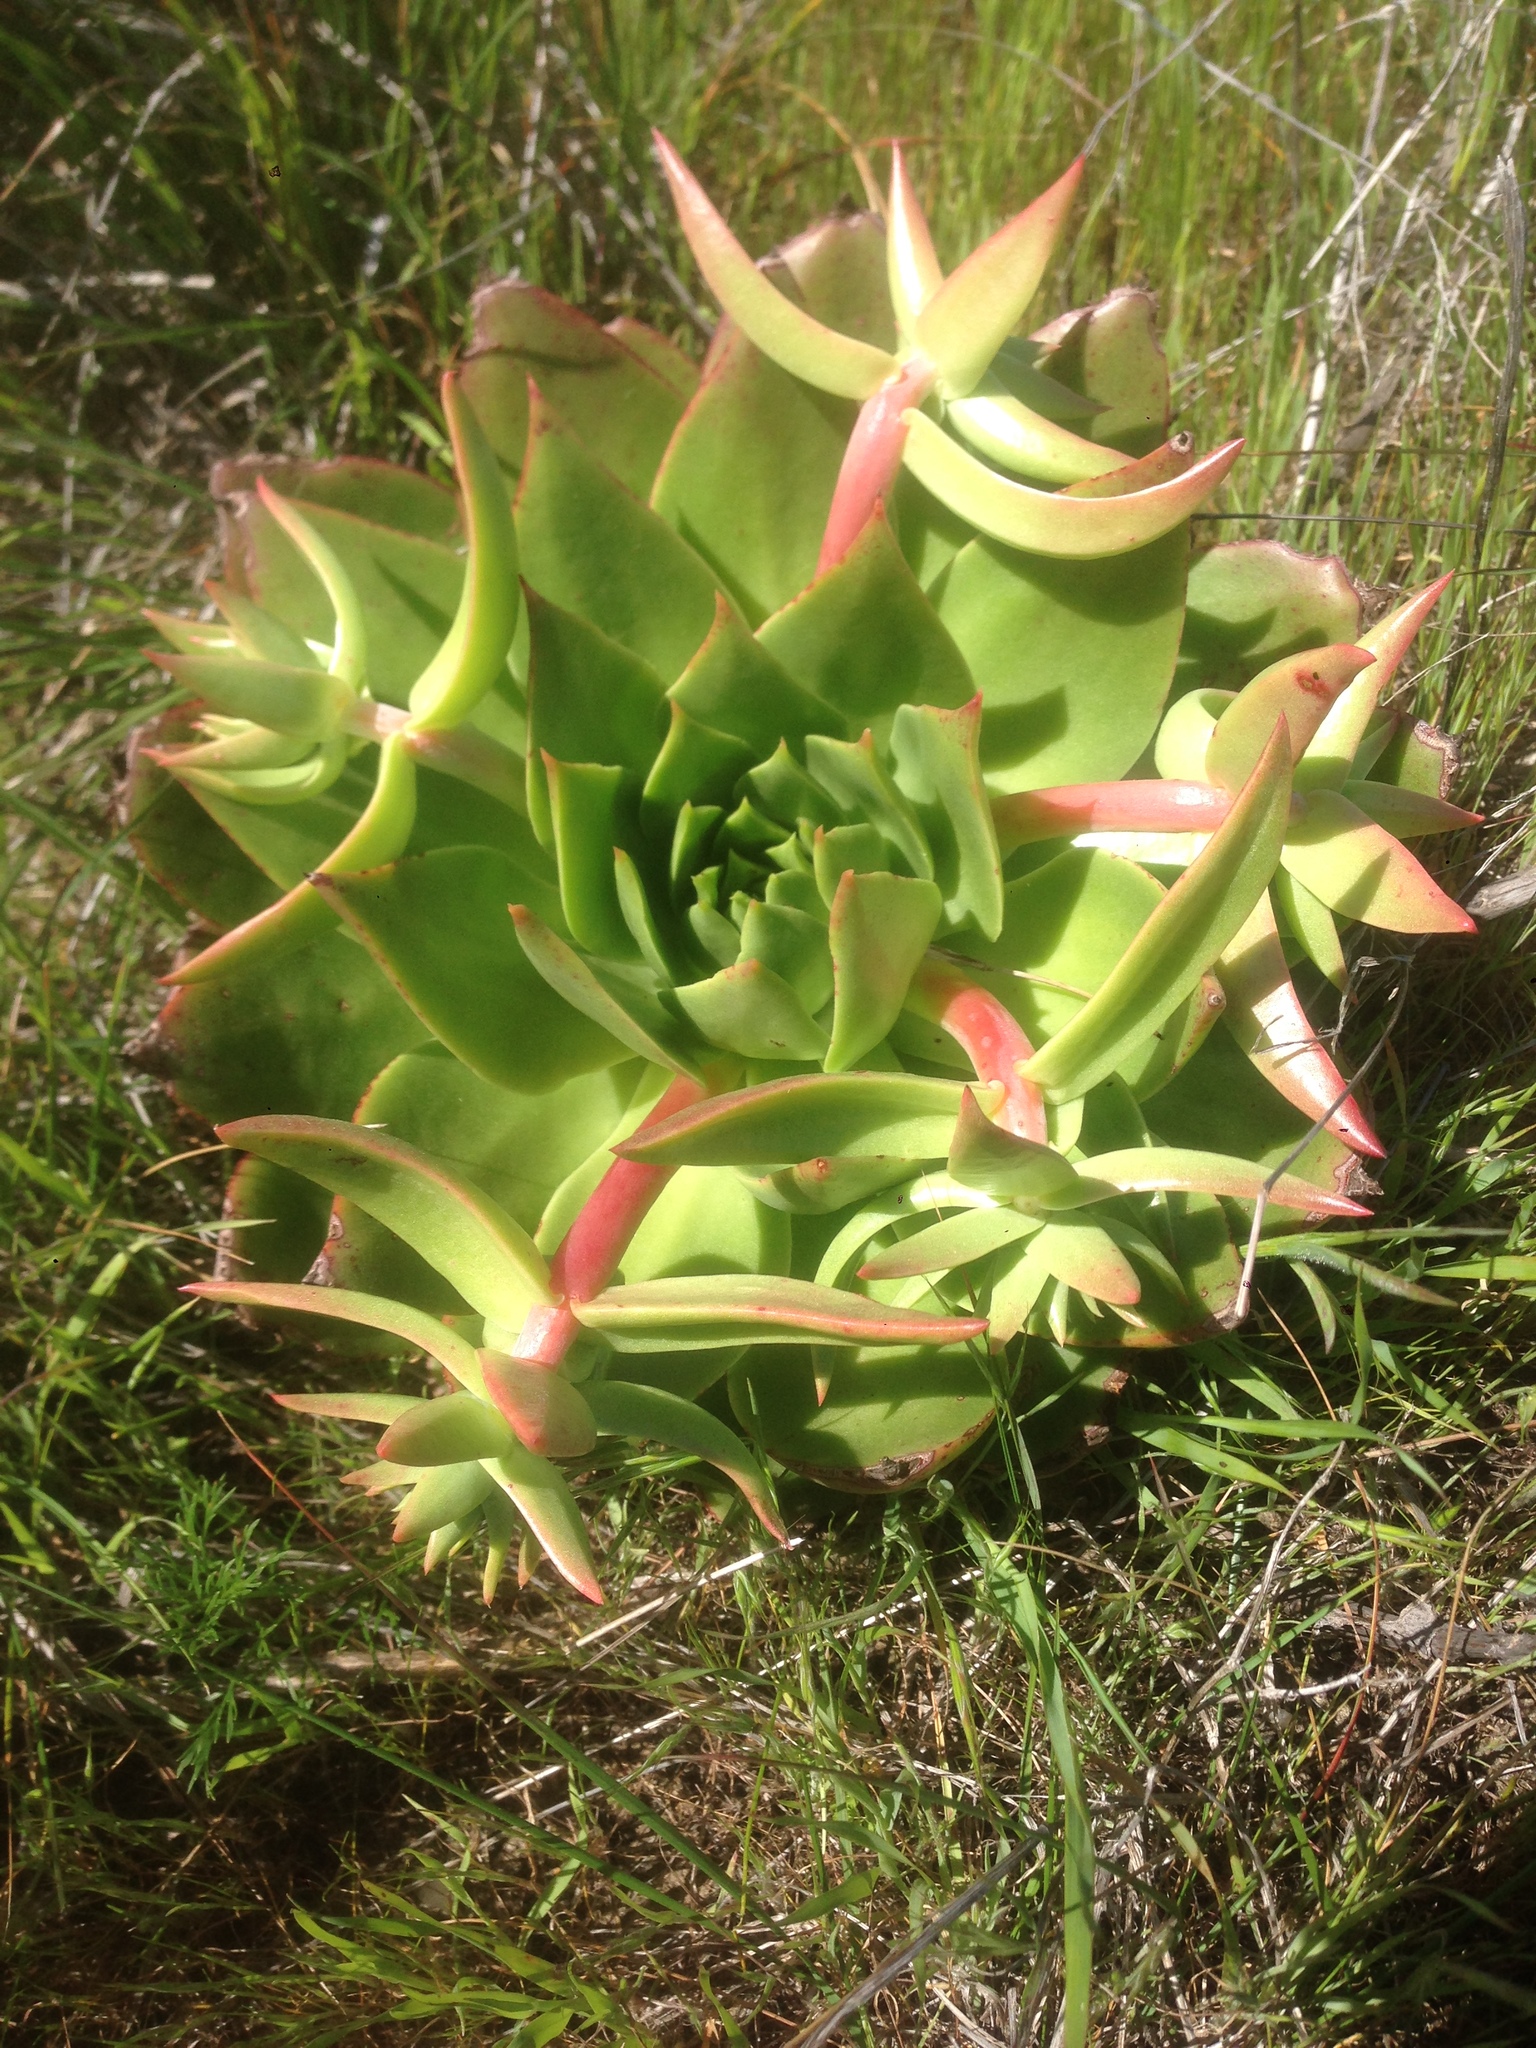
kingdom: Plantae
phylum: Tracheophyta
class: Magnoliopsida
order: Saxifragales
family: Crassulaceae
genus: Dudleya
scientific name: Dudleya candelabrum
